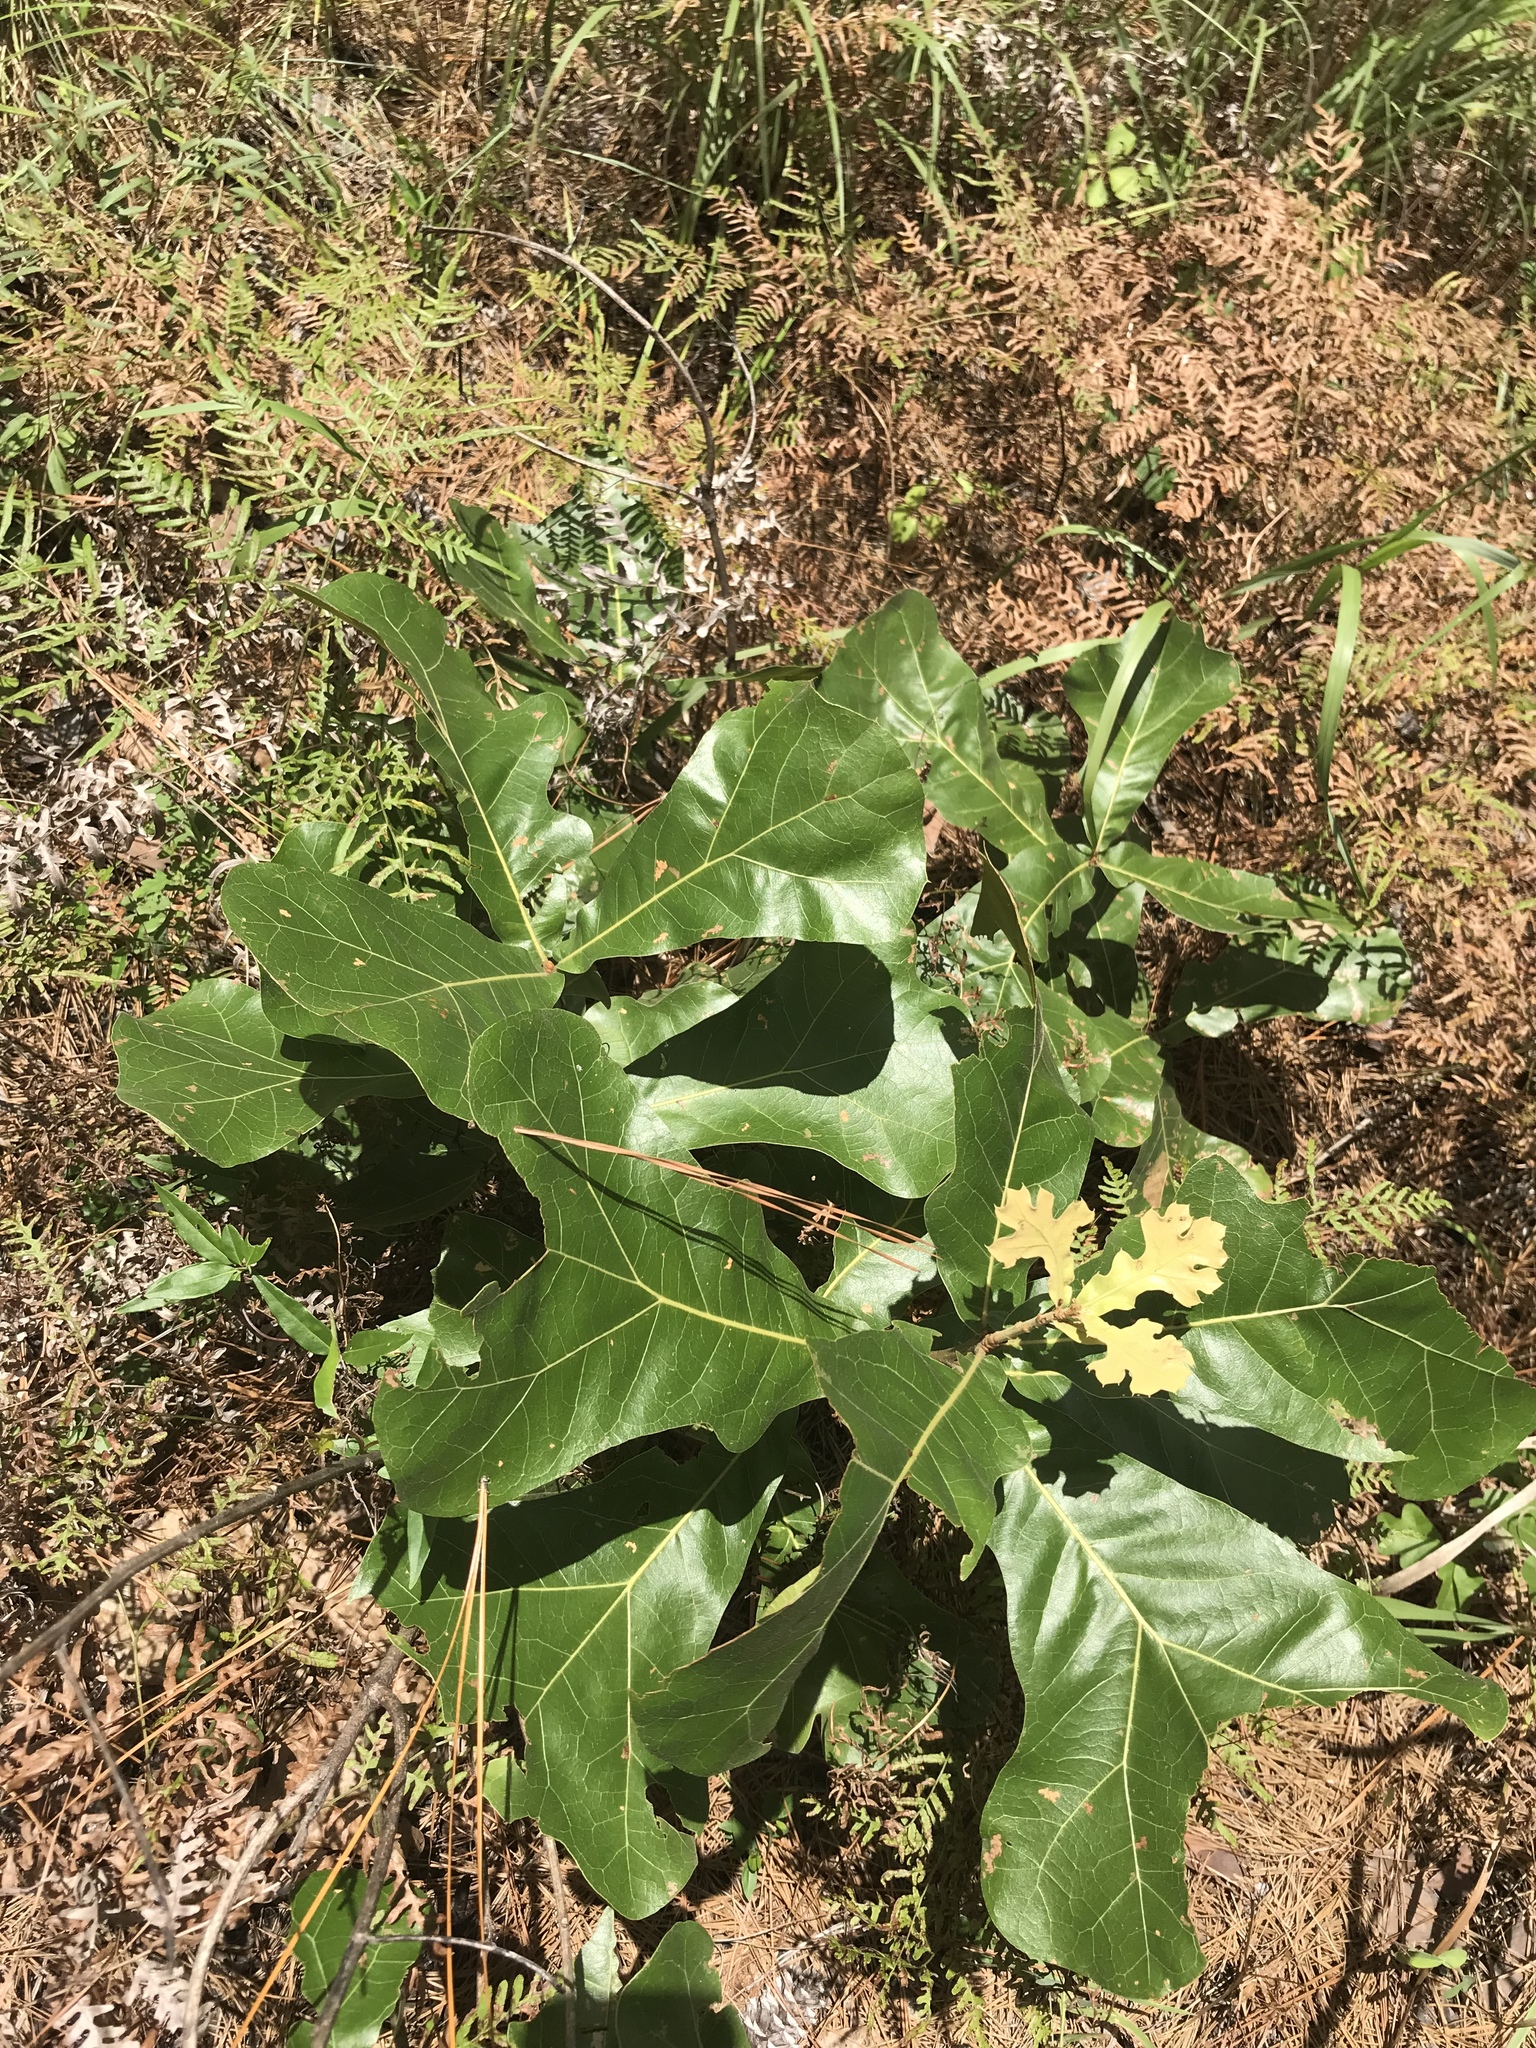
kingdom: Plantae
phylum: Tracheophyta
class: Magnoliopsida
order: Fagales
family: Fagaceae
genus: Quercus
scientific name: Quercus marilandica
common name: Blackjack oak
